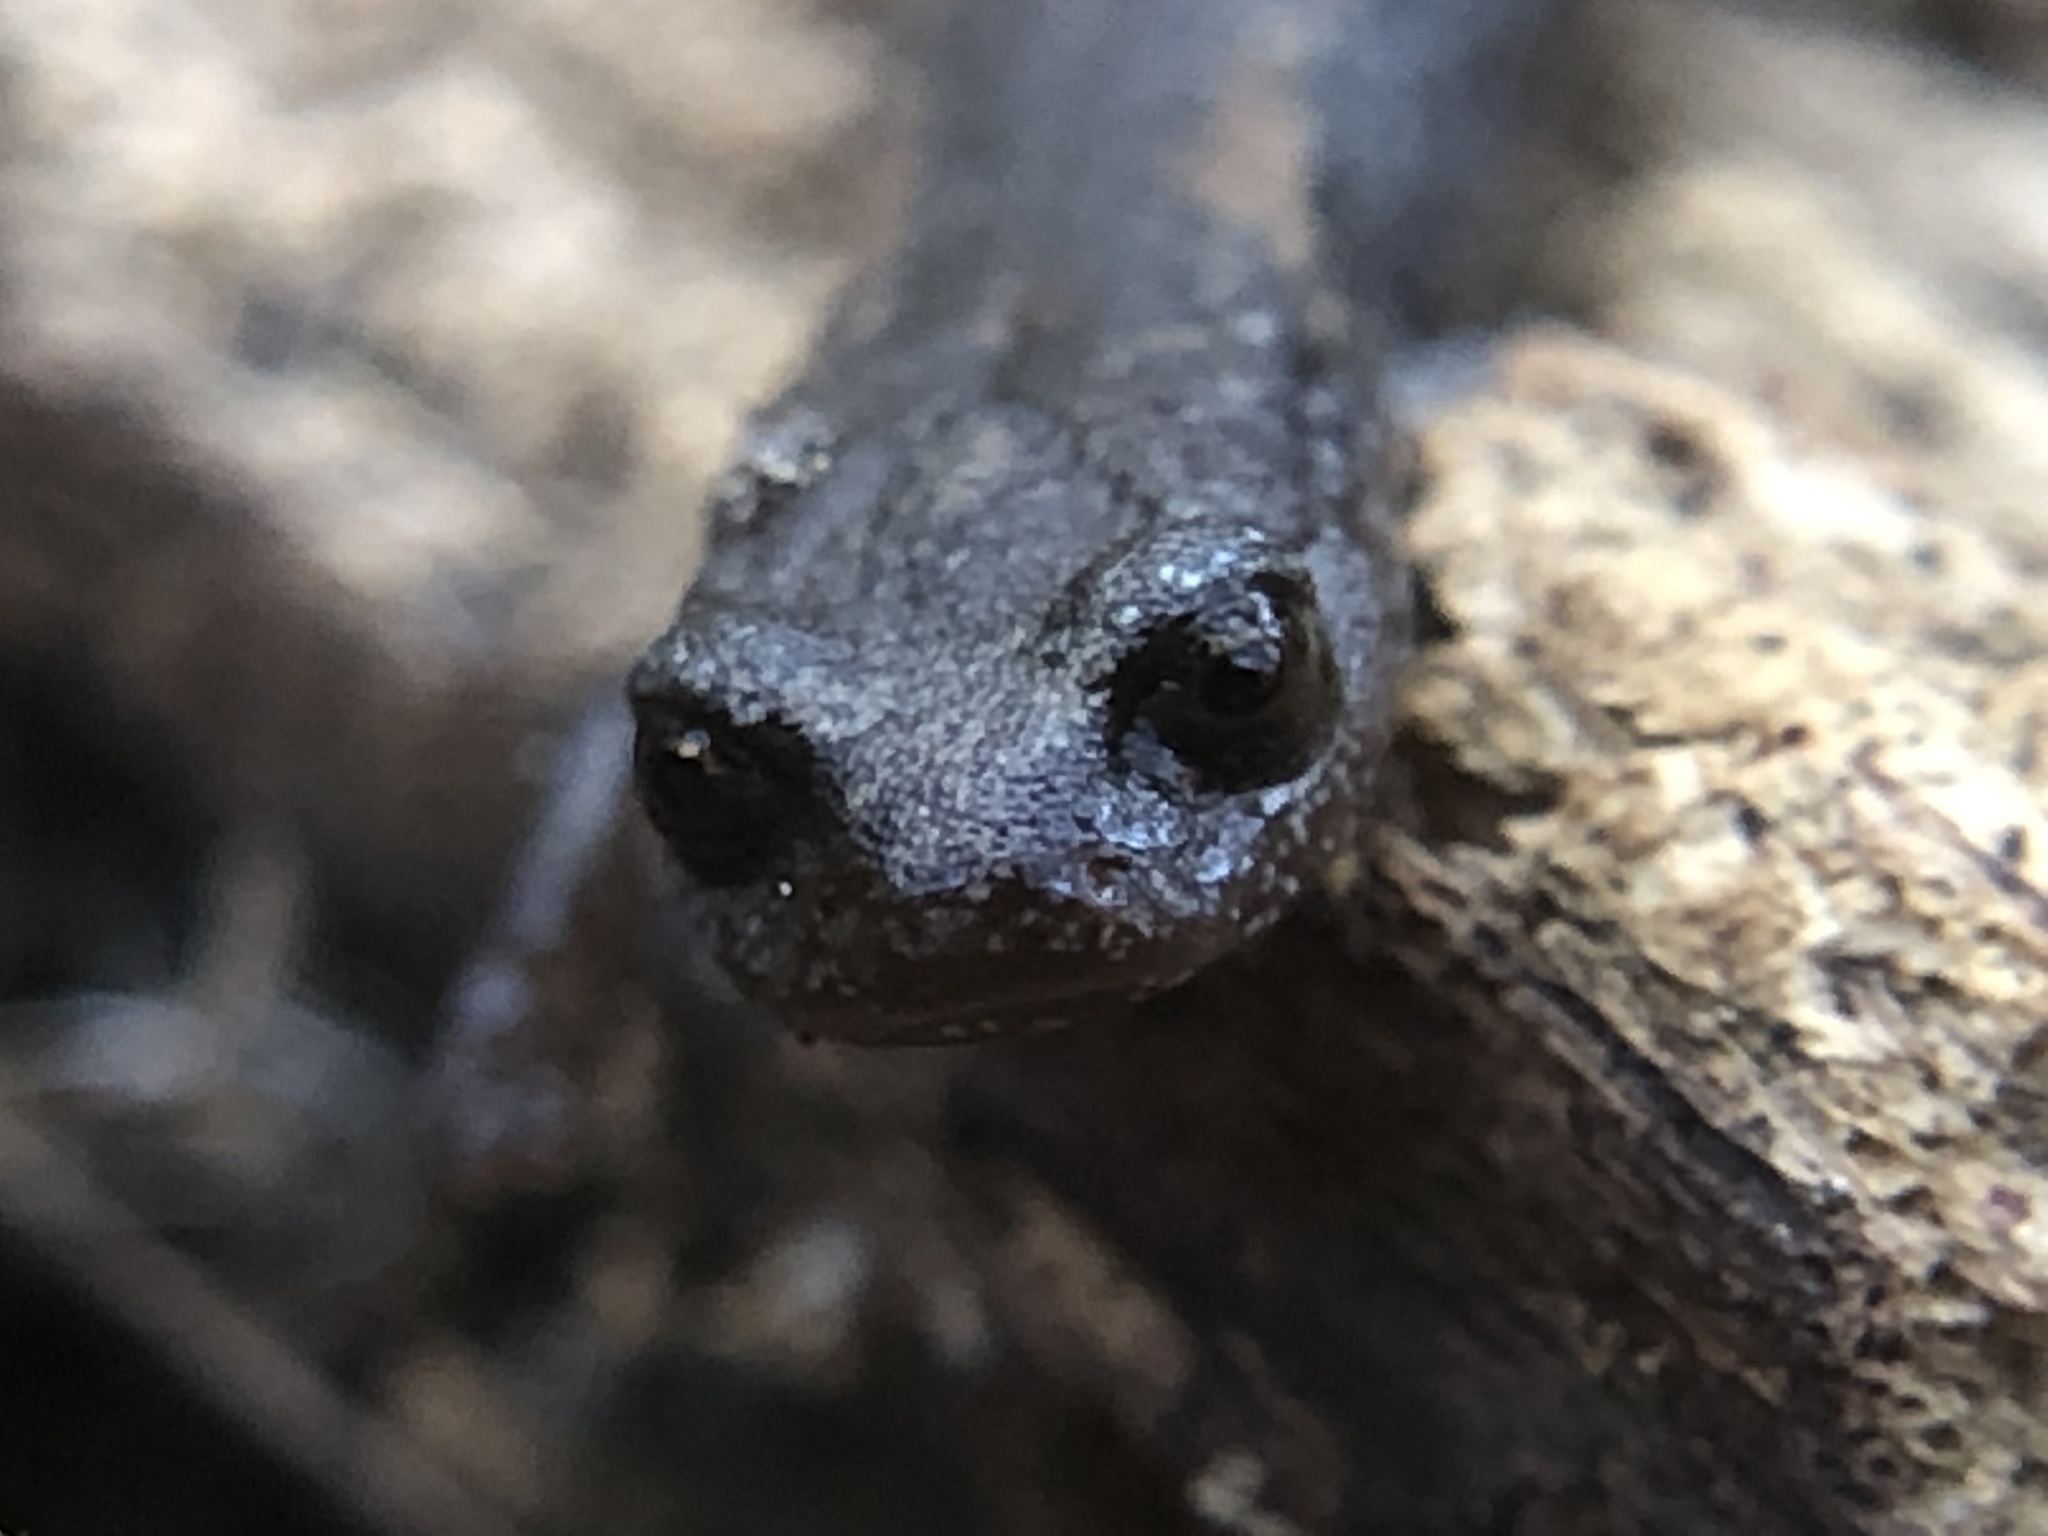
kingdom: Animalia
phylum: Chordata
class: Amphibia
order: Caudata
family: Plethodontidae
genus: Batrachoseps
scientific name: Batrachoseps attenuatus
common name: California slender salamander
